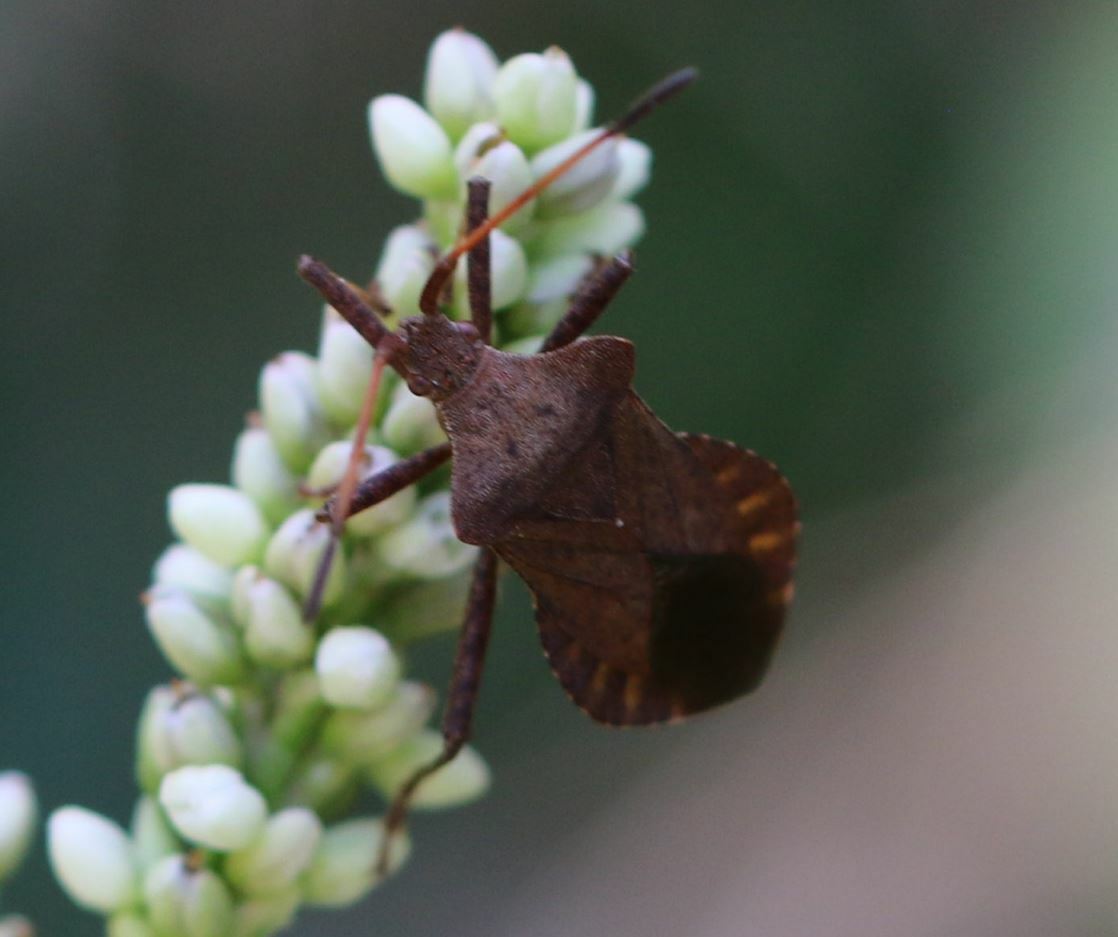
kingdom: Animalia
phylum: Arthropoda
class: Insecta
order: Hemiptera
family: Coreidae
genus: Coreus
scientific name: Coreus marginatus
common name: Dock bug
